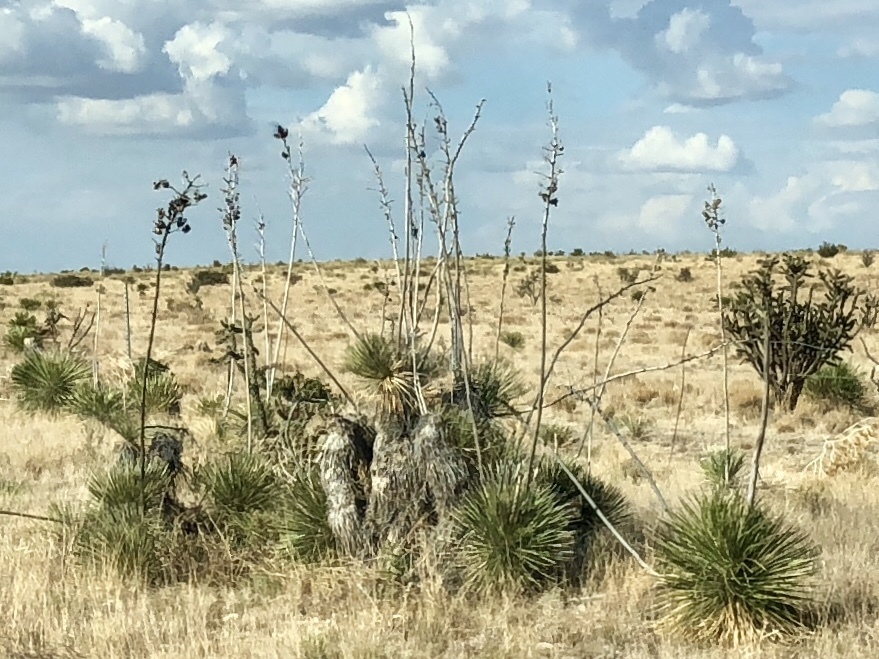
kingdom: Plantae
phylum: Tracheophyta
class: Liliopsida
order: Asparagales
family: Asparagaceae
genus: Yucca
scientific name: Yucca elata
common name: Palmella
